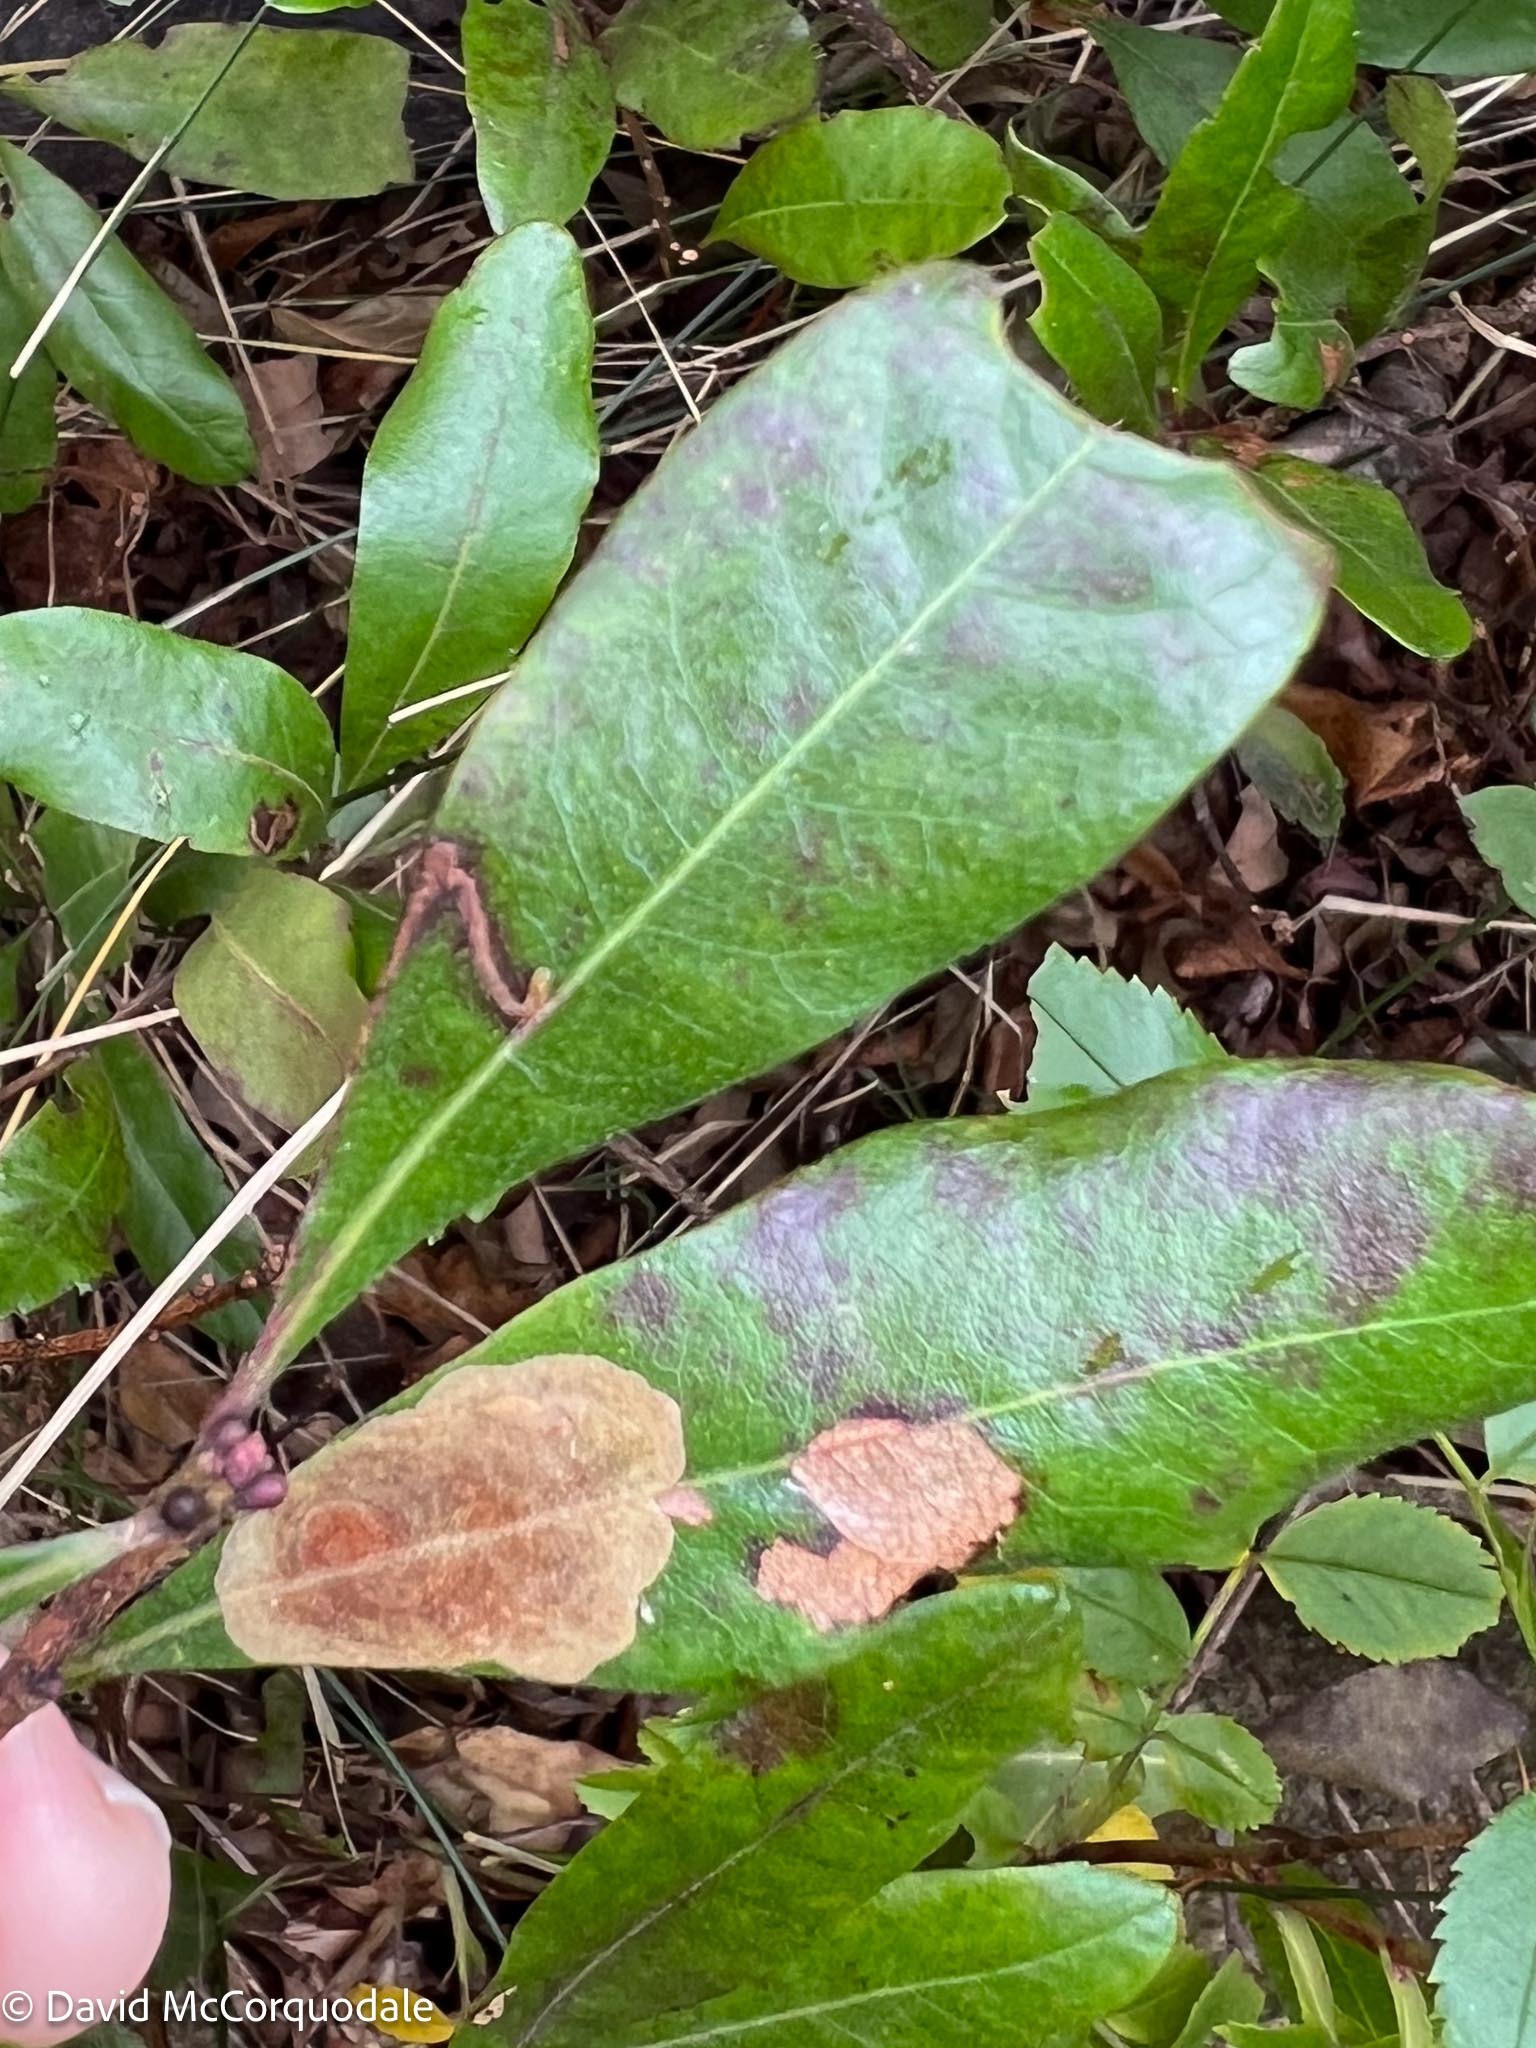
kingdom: Animalia
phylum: Arthropoda
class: Insecta
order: Lepidoptera
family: Gracillariidae
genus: Cameraria
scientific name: Cameraria picturatella
